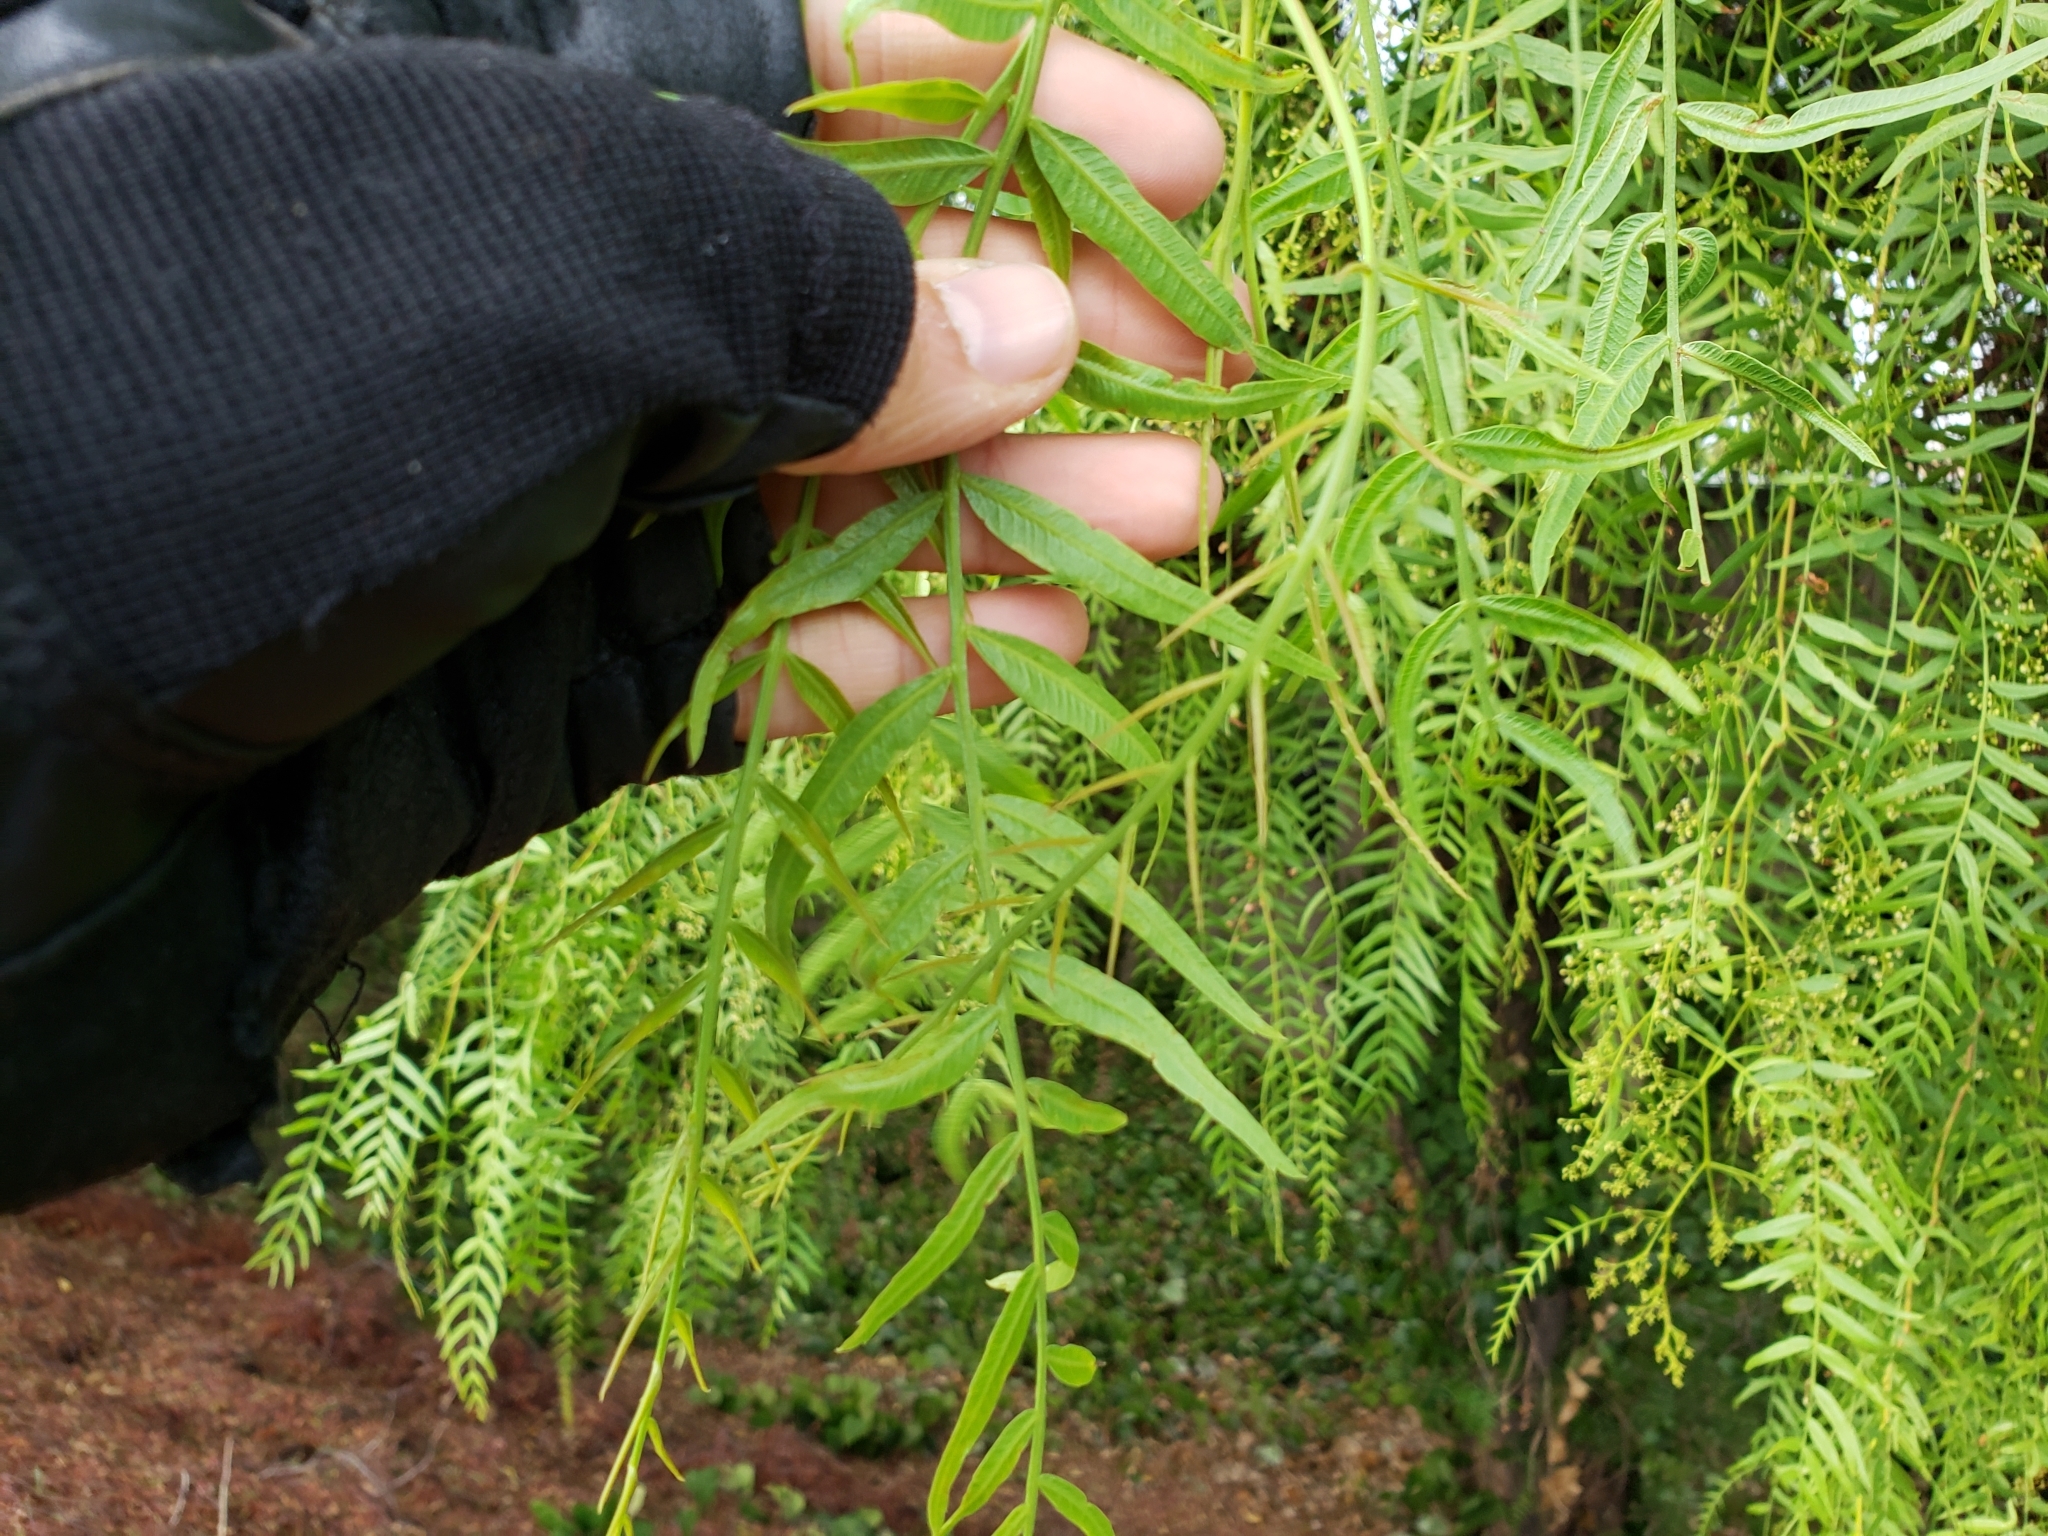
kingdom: Plantae
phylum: Tracheophyta
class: Magnoliopsida
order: Sapindales
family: Anacardiaceae
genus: Schinus
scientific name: Schinus molle
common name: Peruvian peppertree
